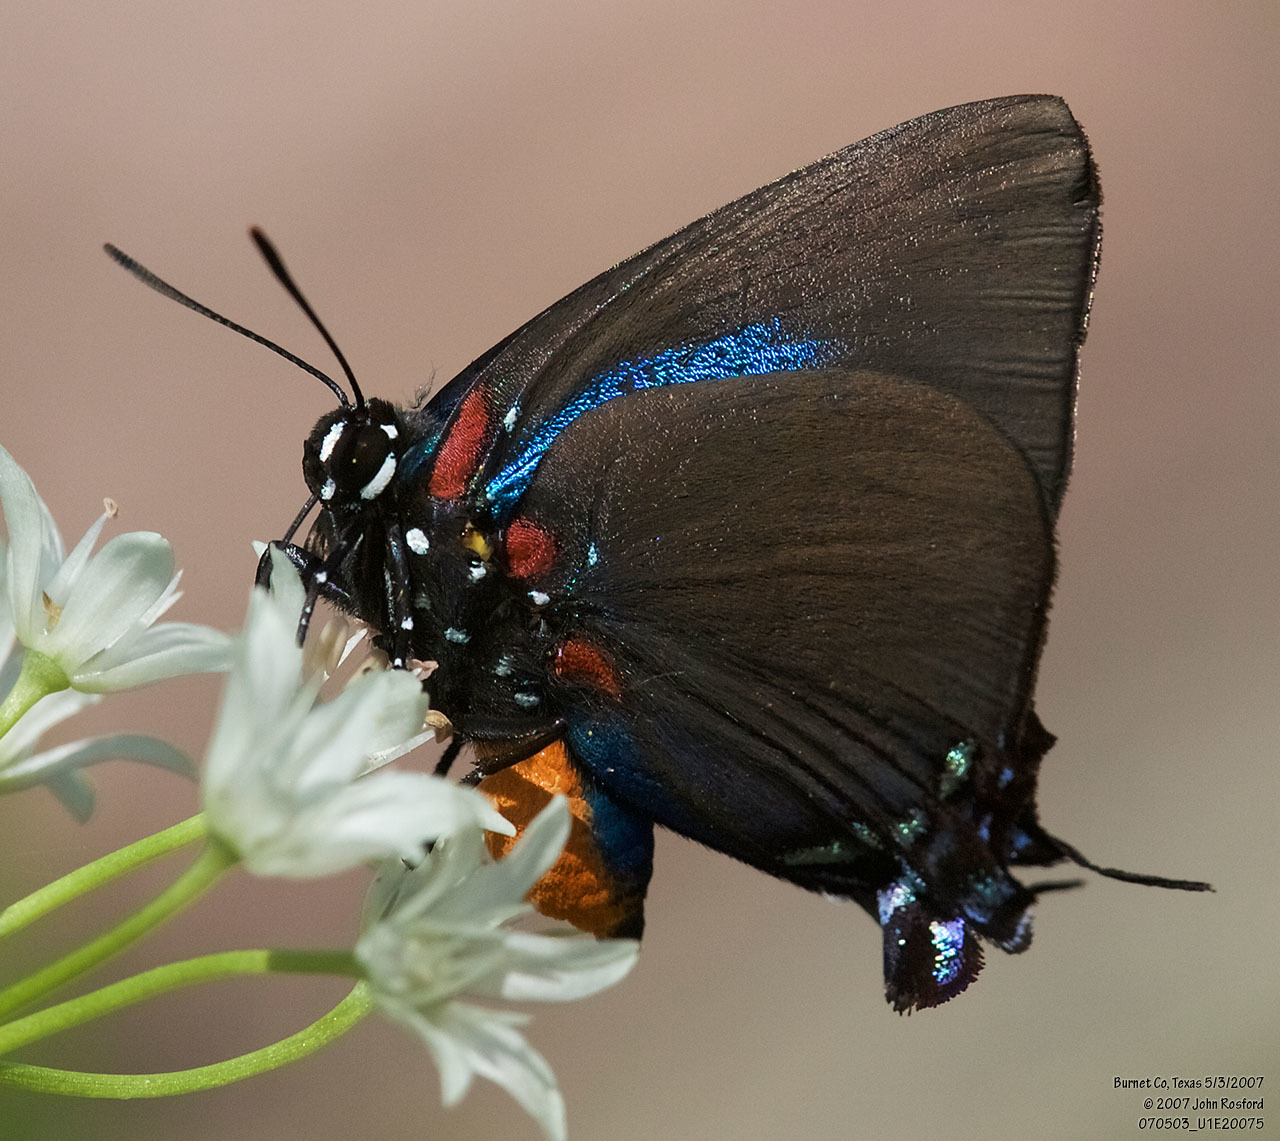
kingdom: Animalia
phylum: Arthropoda
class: Insecta
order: Lepidoptera
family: Lycaenidae
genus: Atlides
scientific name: Atlides halesus
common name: Great purple hairstreak
